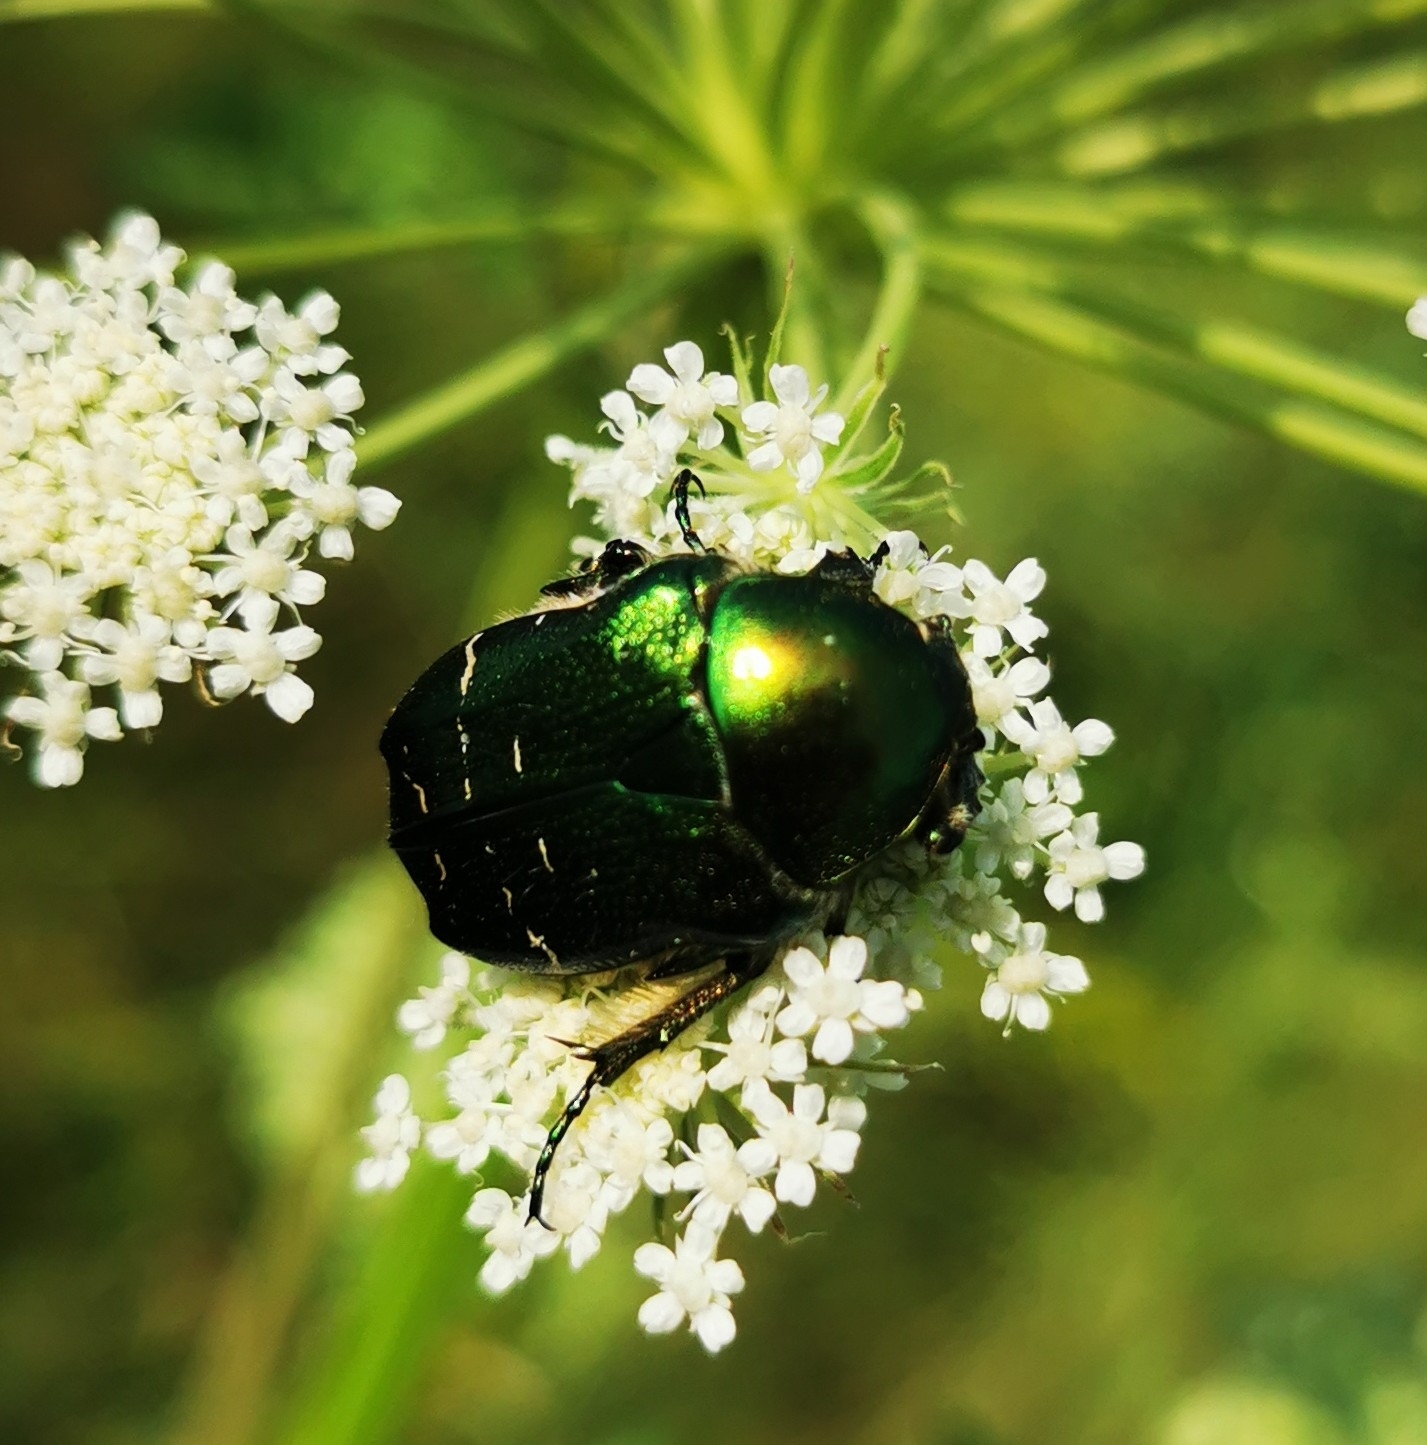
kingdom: Animalia
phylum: Arthropoda
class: Insecta
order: Coleoptera
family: Scarabaeidae
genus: Cetonia
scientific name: Cetonia aurata
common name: Rose chafer
